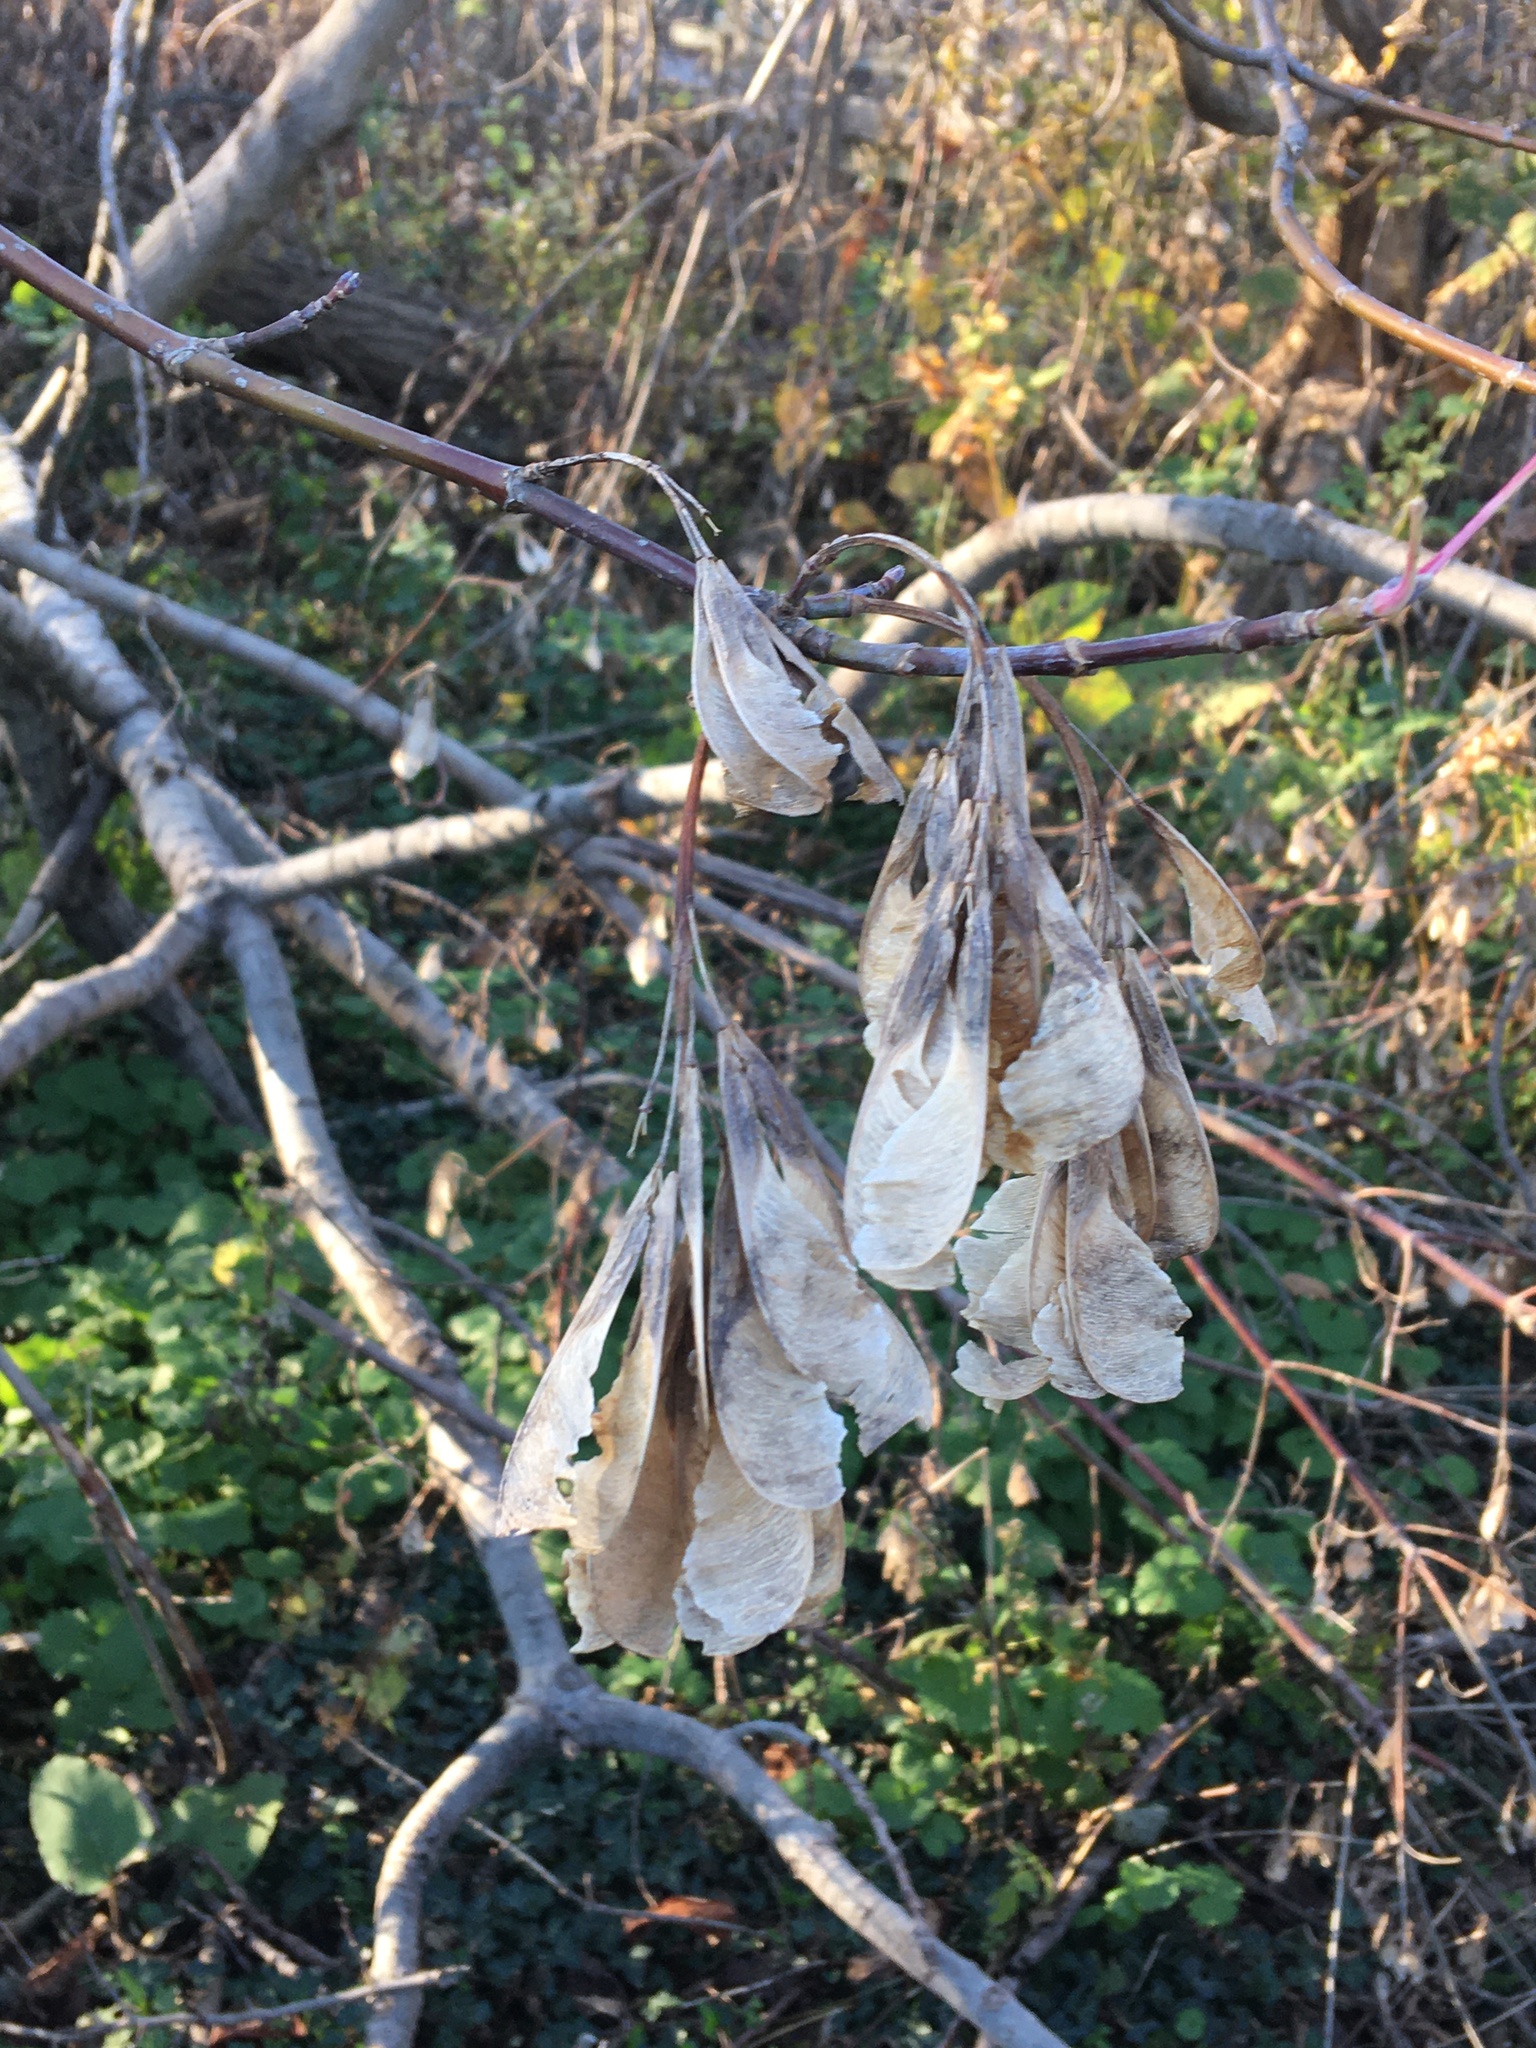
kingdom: Plantae
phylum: Tracheophyta
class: Magnoliopsida
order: Sapindales
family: Sapindaceae
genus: Acer
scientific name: Acer negundo
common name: Ashleaf maple
